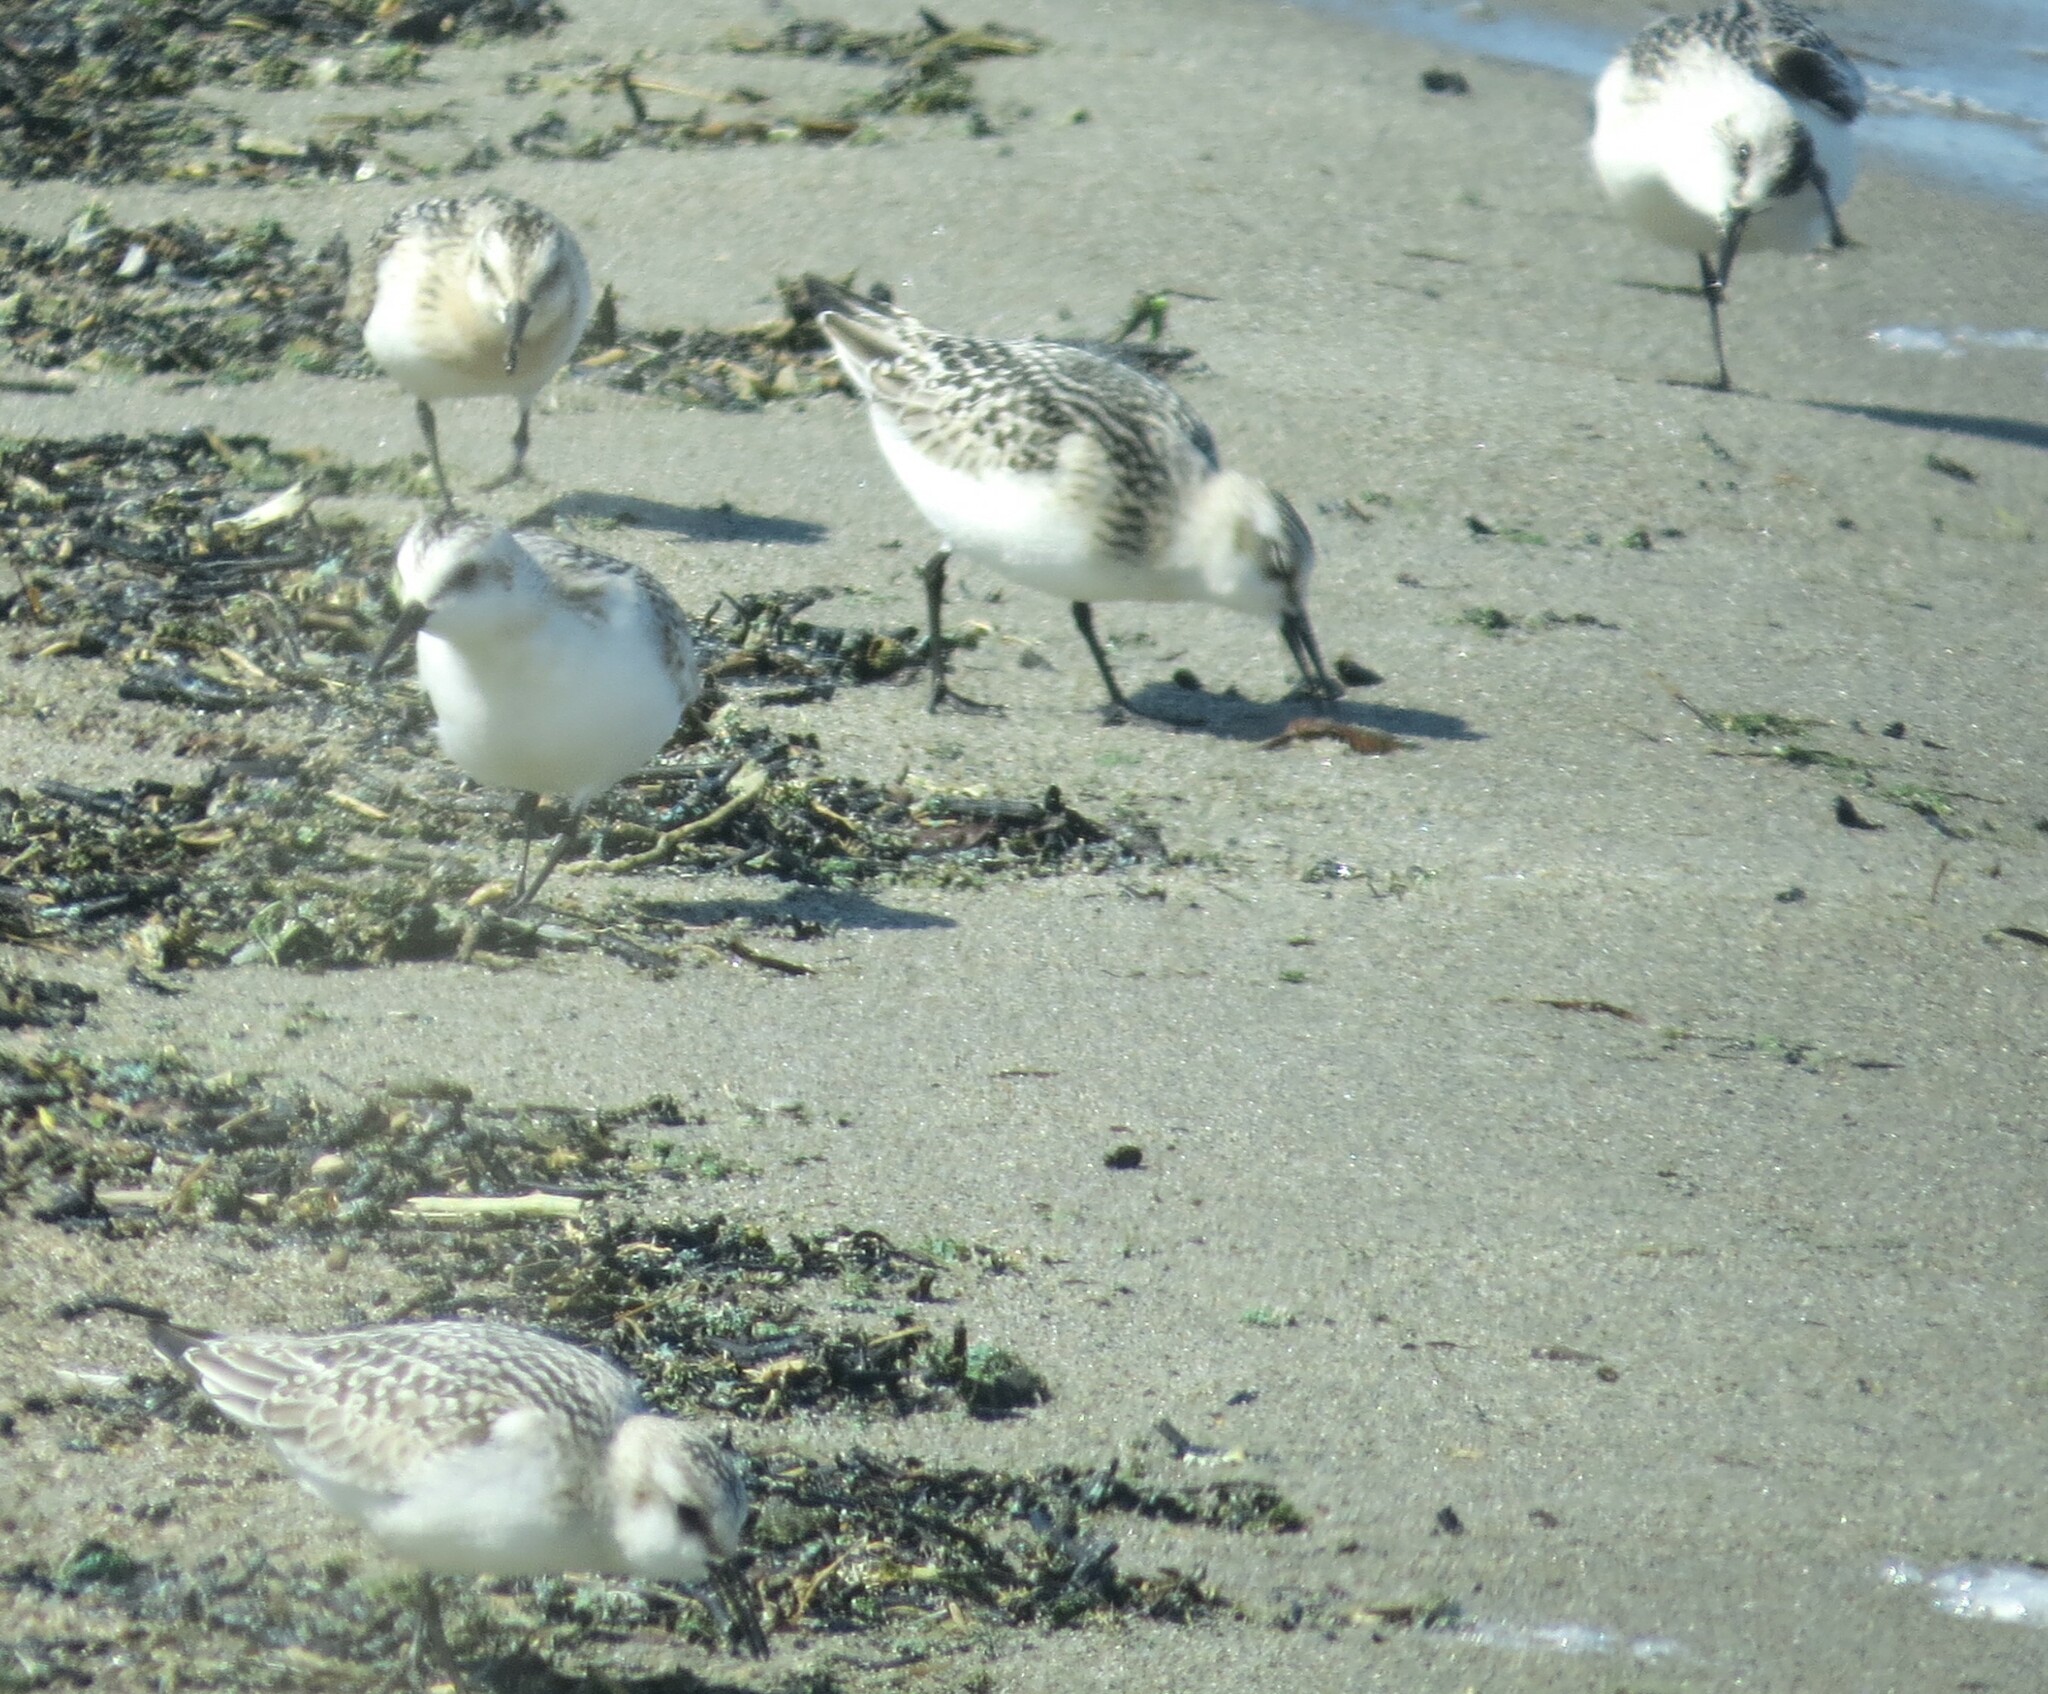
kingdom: Animalia
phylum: Chordata
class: Aves
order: Charadriiformes
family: Scolopacidae
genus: Calidris
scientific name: Calidris alba
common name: Sanderling
